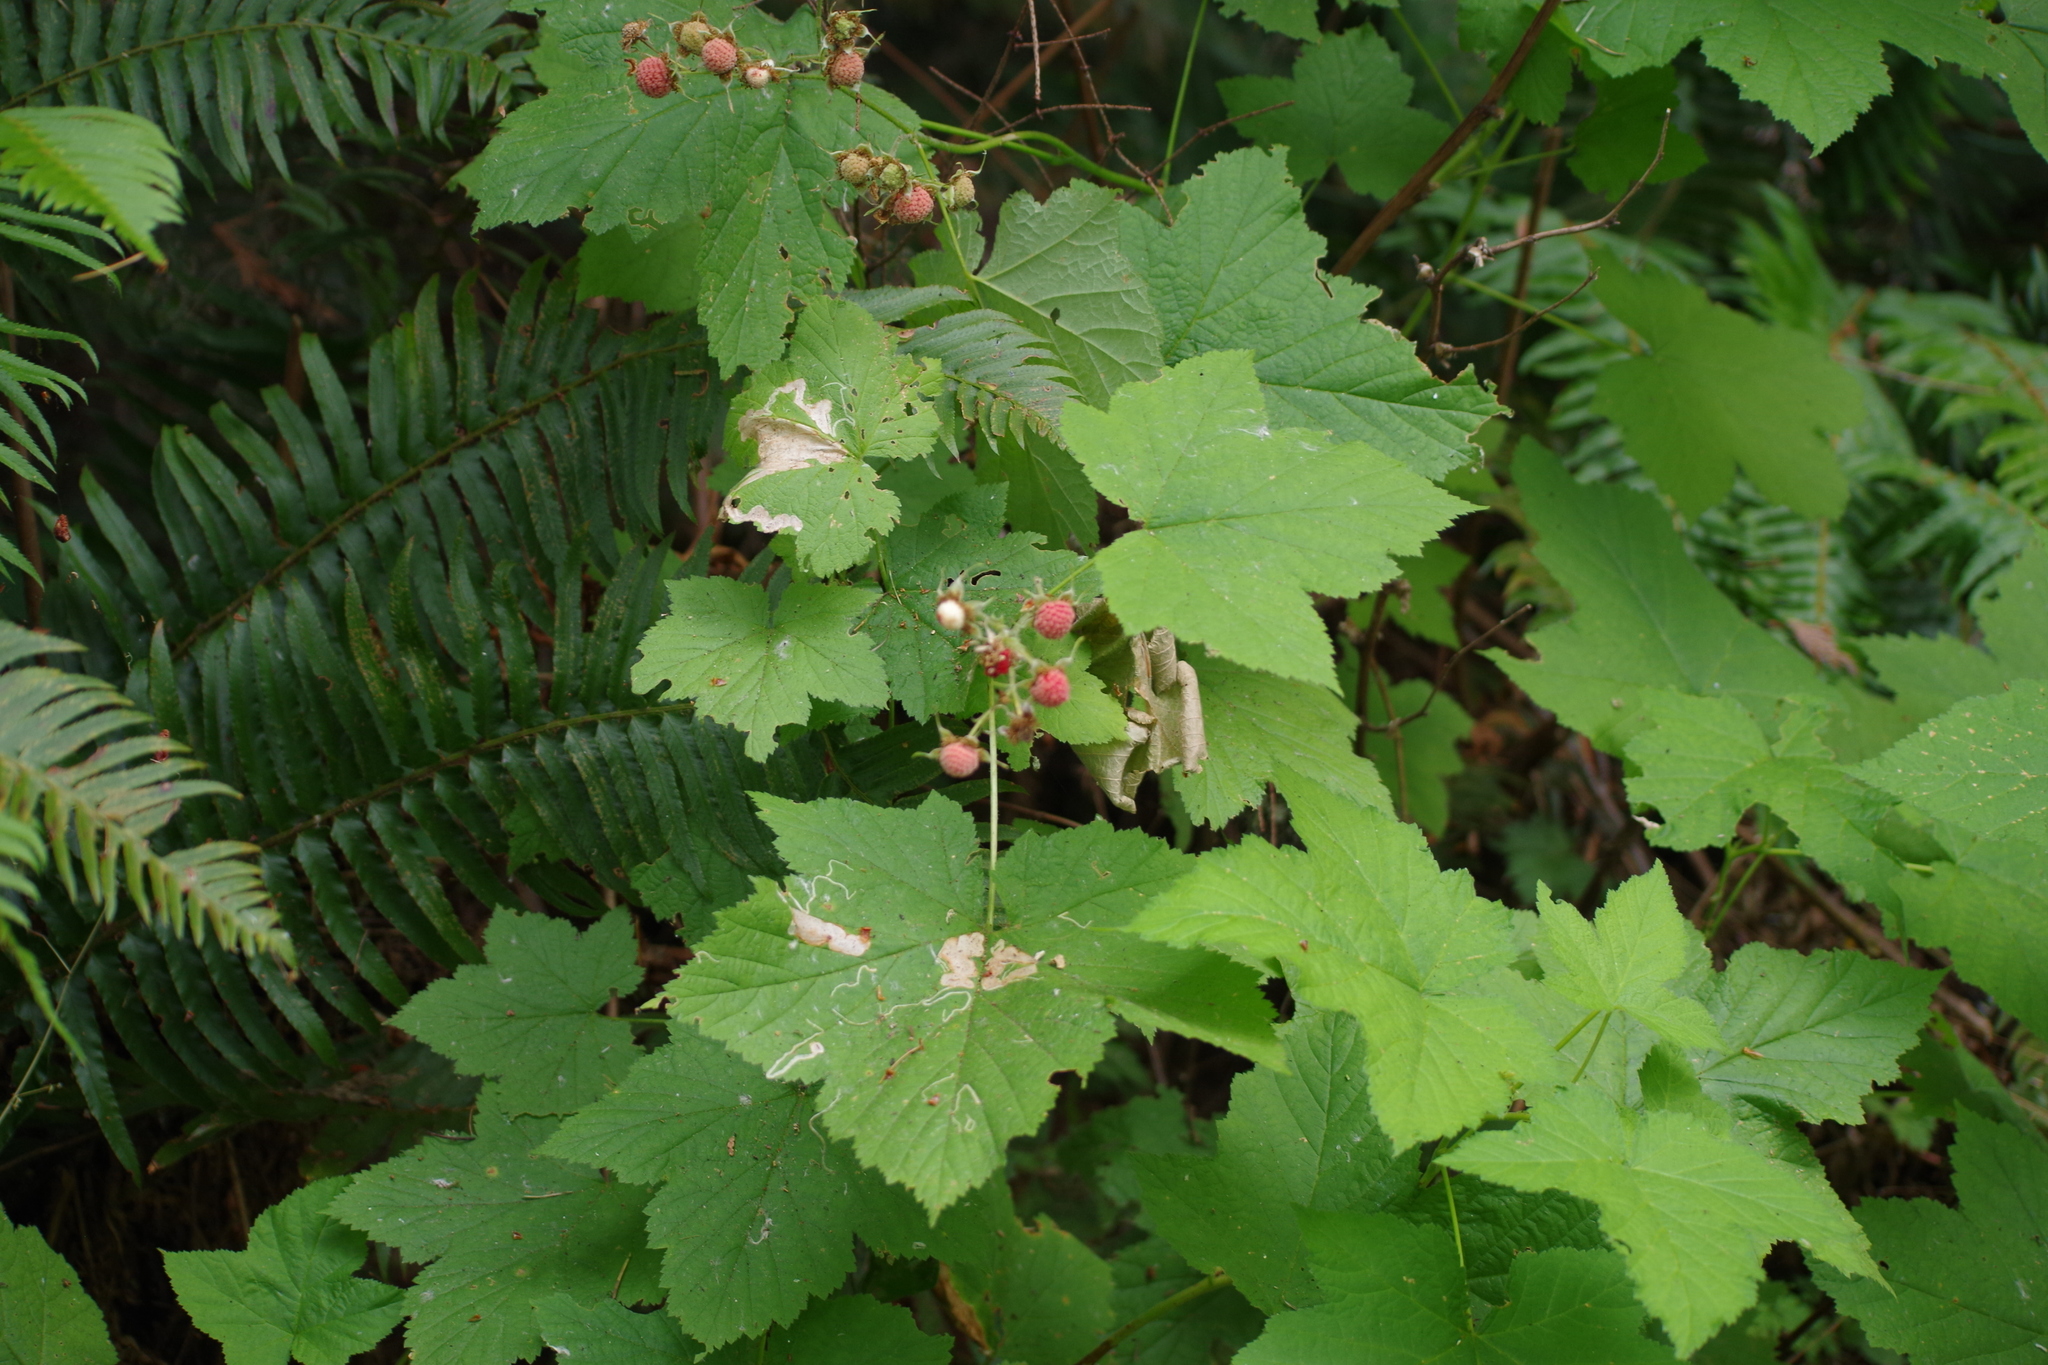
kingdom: Plantae
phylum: Tracheophyta
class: Magnoliopsida
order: Rosales
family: Rosaceae
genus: Rubus
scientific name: Rubus parviflorus
